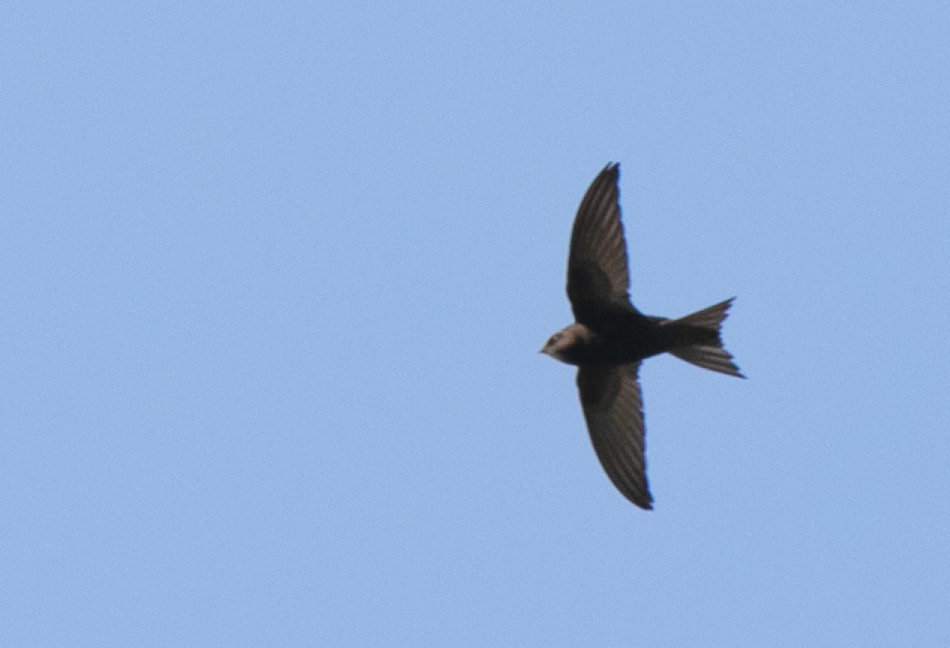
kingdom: Animalia
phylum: Chordata
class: Aves
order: Apodiformes
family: Apodidae
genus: Apus
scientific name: Apus apus
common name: Common swift
